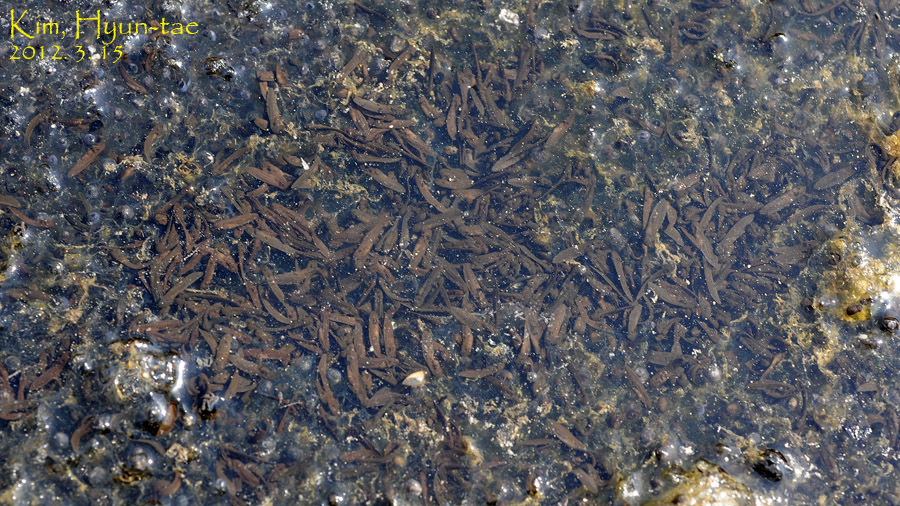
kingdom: Animalia
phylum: Chordata
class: Amphibia
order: Anura
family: Ranidae
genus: Rana
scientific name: Rana uenoi
